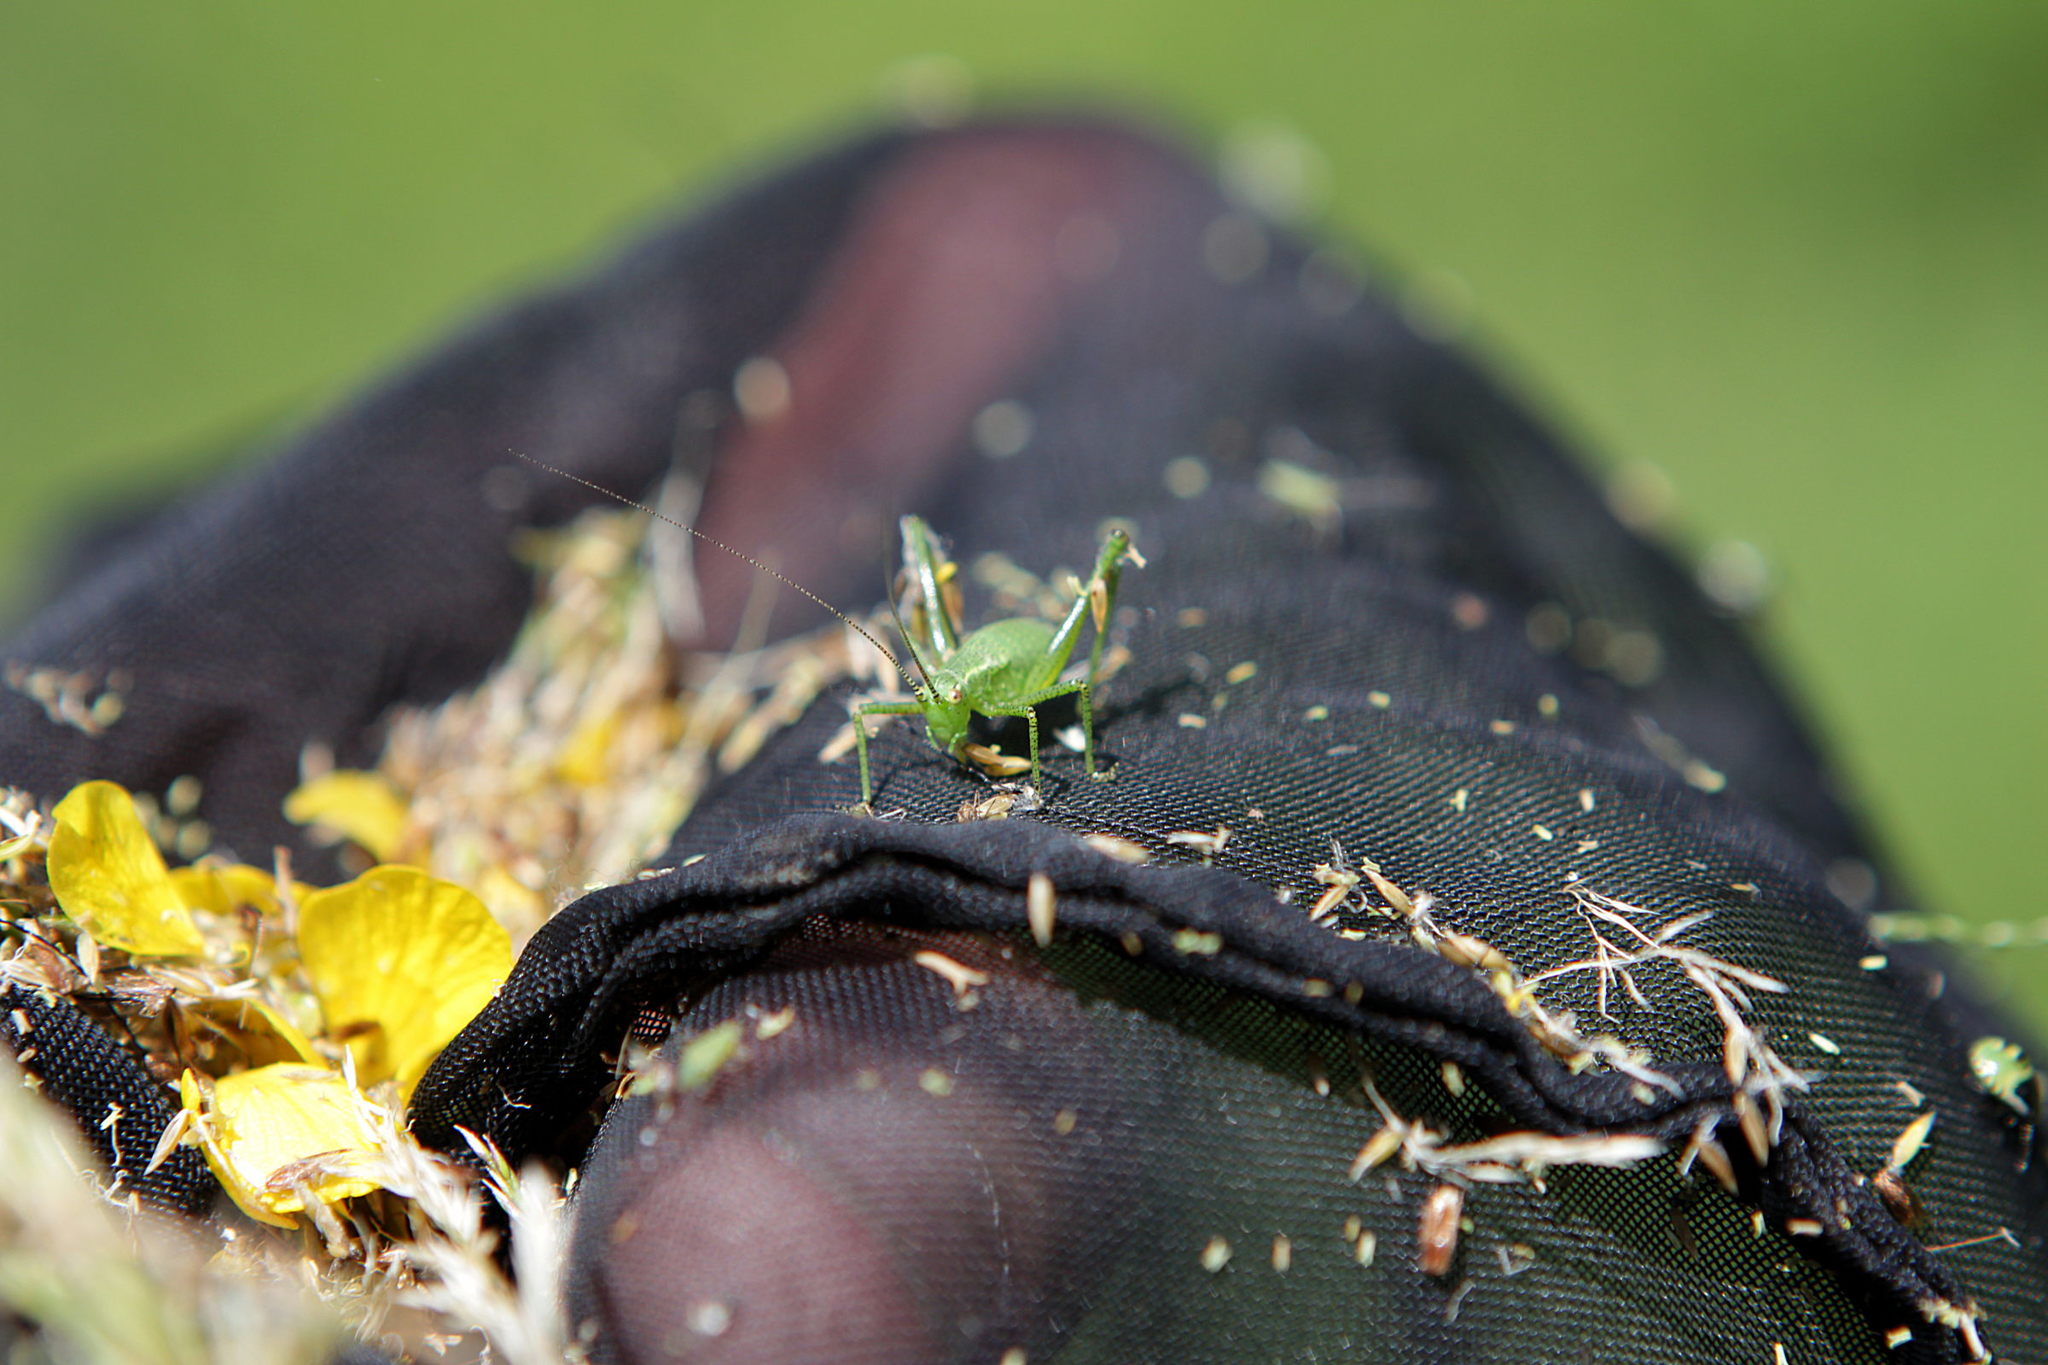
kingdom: Animalia
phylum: Arthropoda
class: Insecta
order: Orthoptera
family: Tettigoniidae
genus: Leptophyes
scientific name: Leptophyes punctatissima
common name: Speckled bush-cricket
